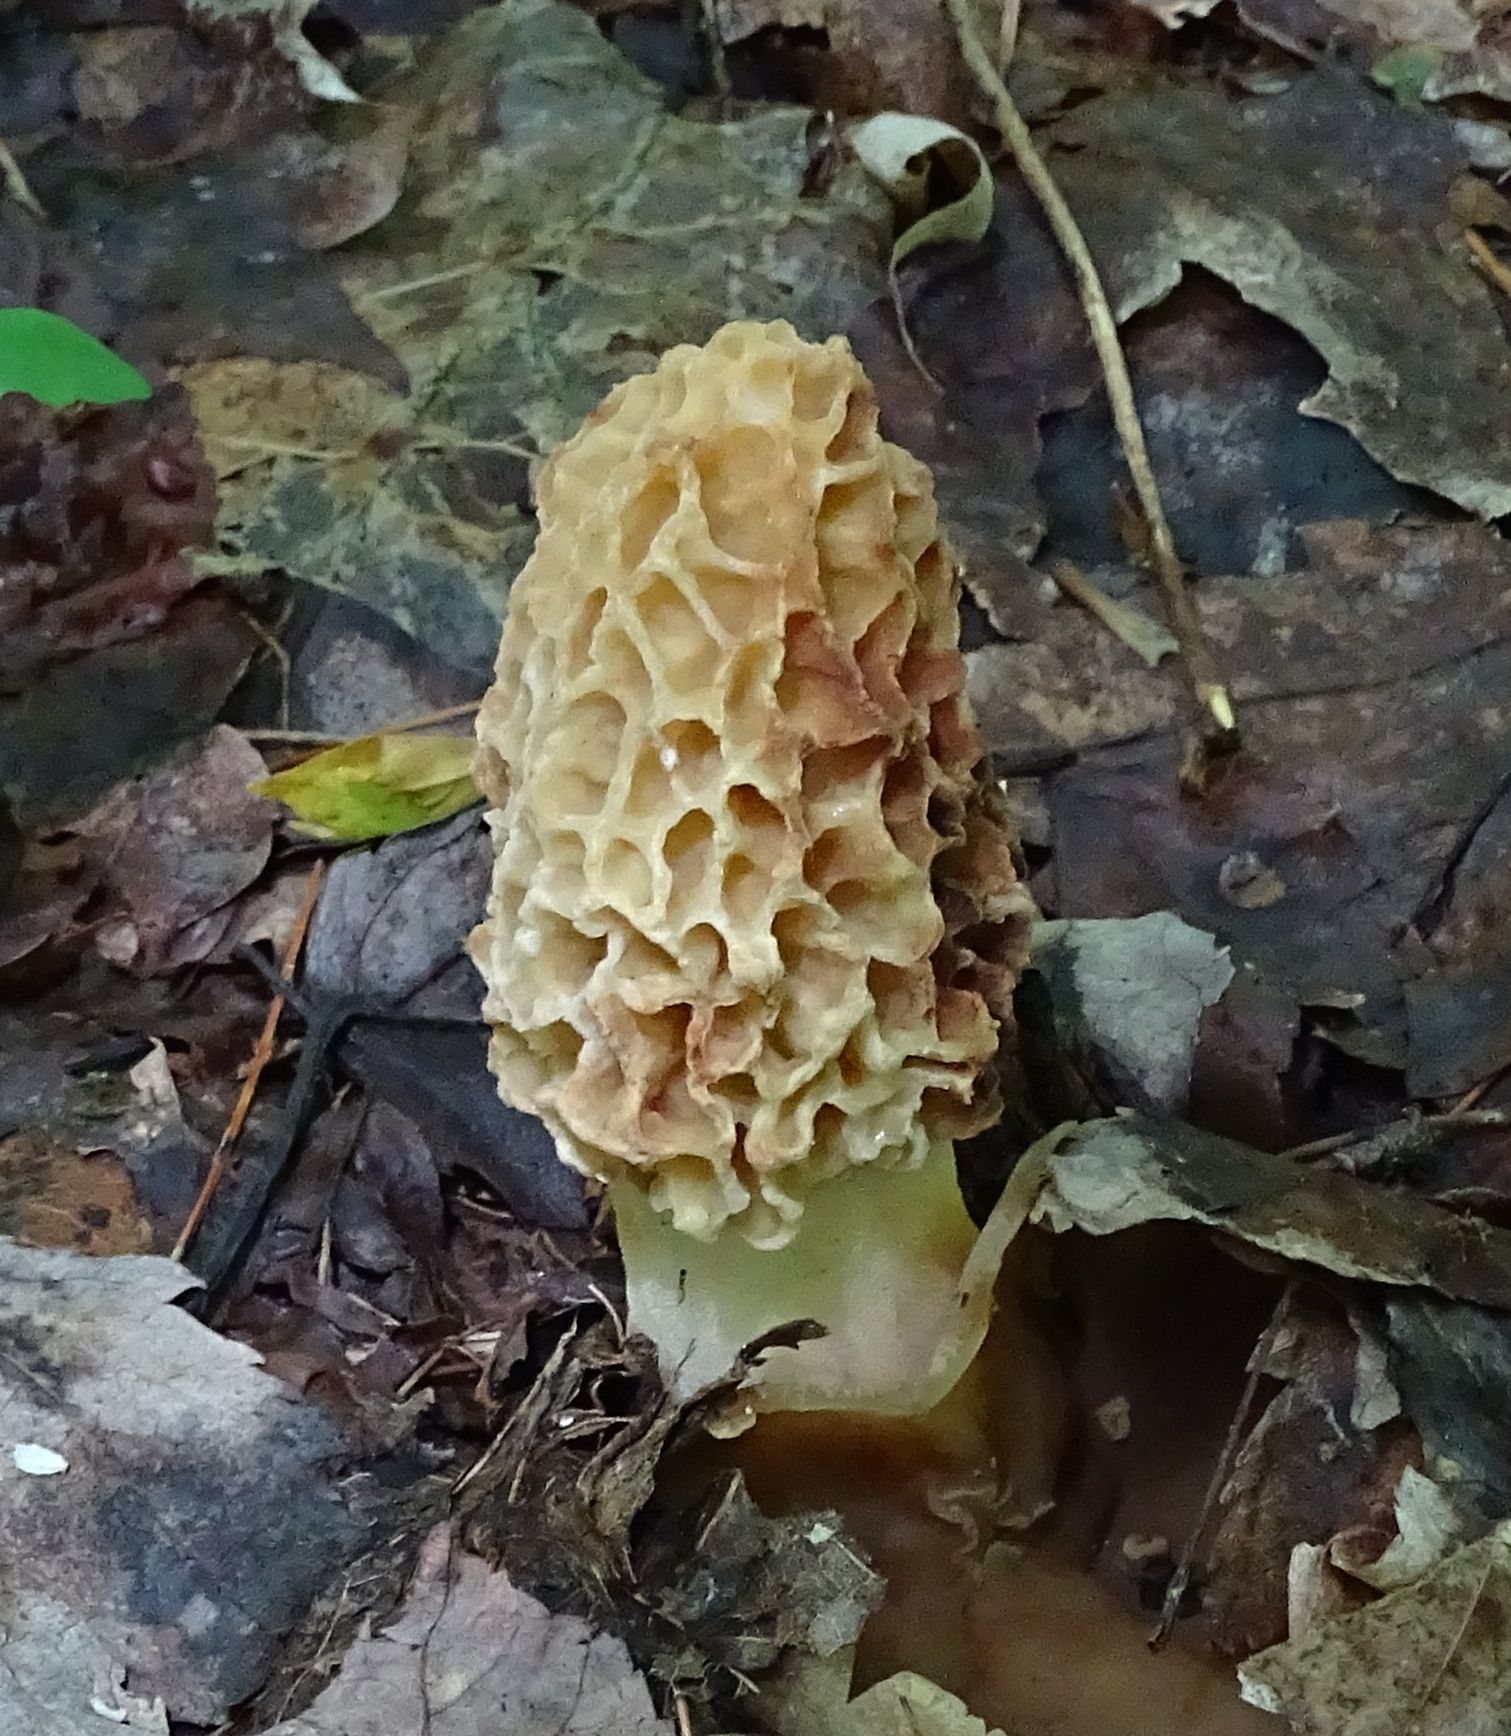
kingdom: Fungi
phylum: Ascomycota
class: Pezizomycetes
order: Pezizales
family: Morchellaceae
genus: Morchella
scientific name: Morchella americana
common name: White morel
